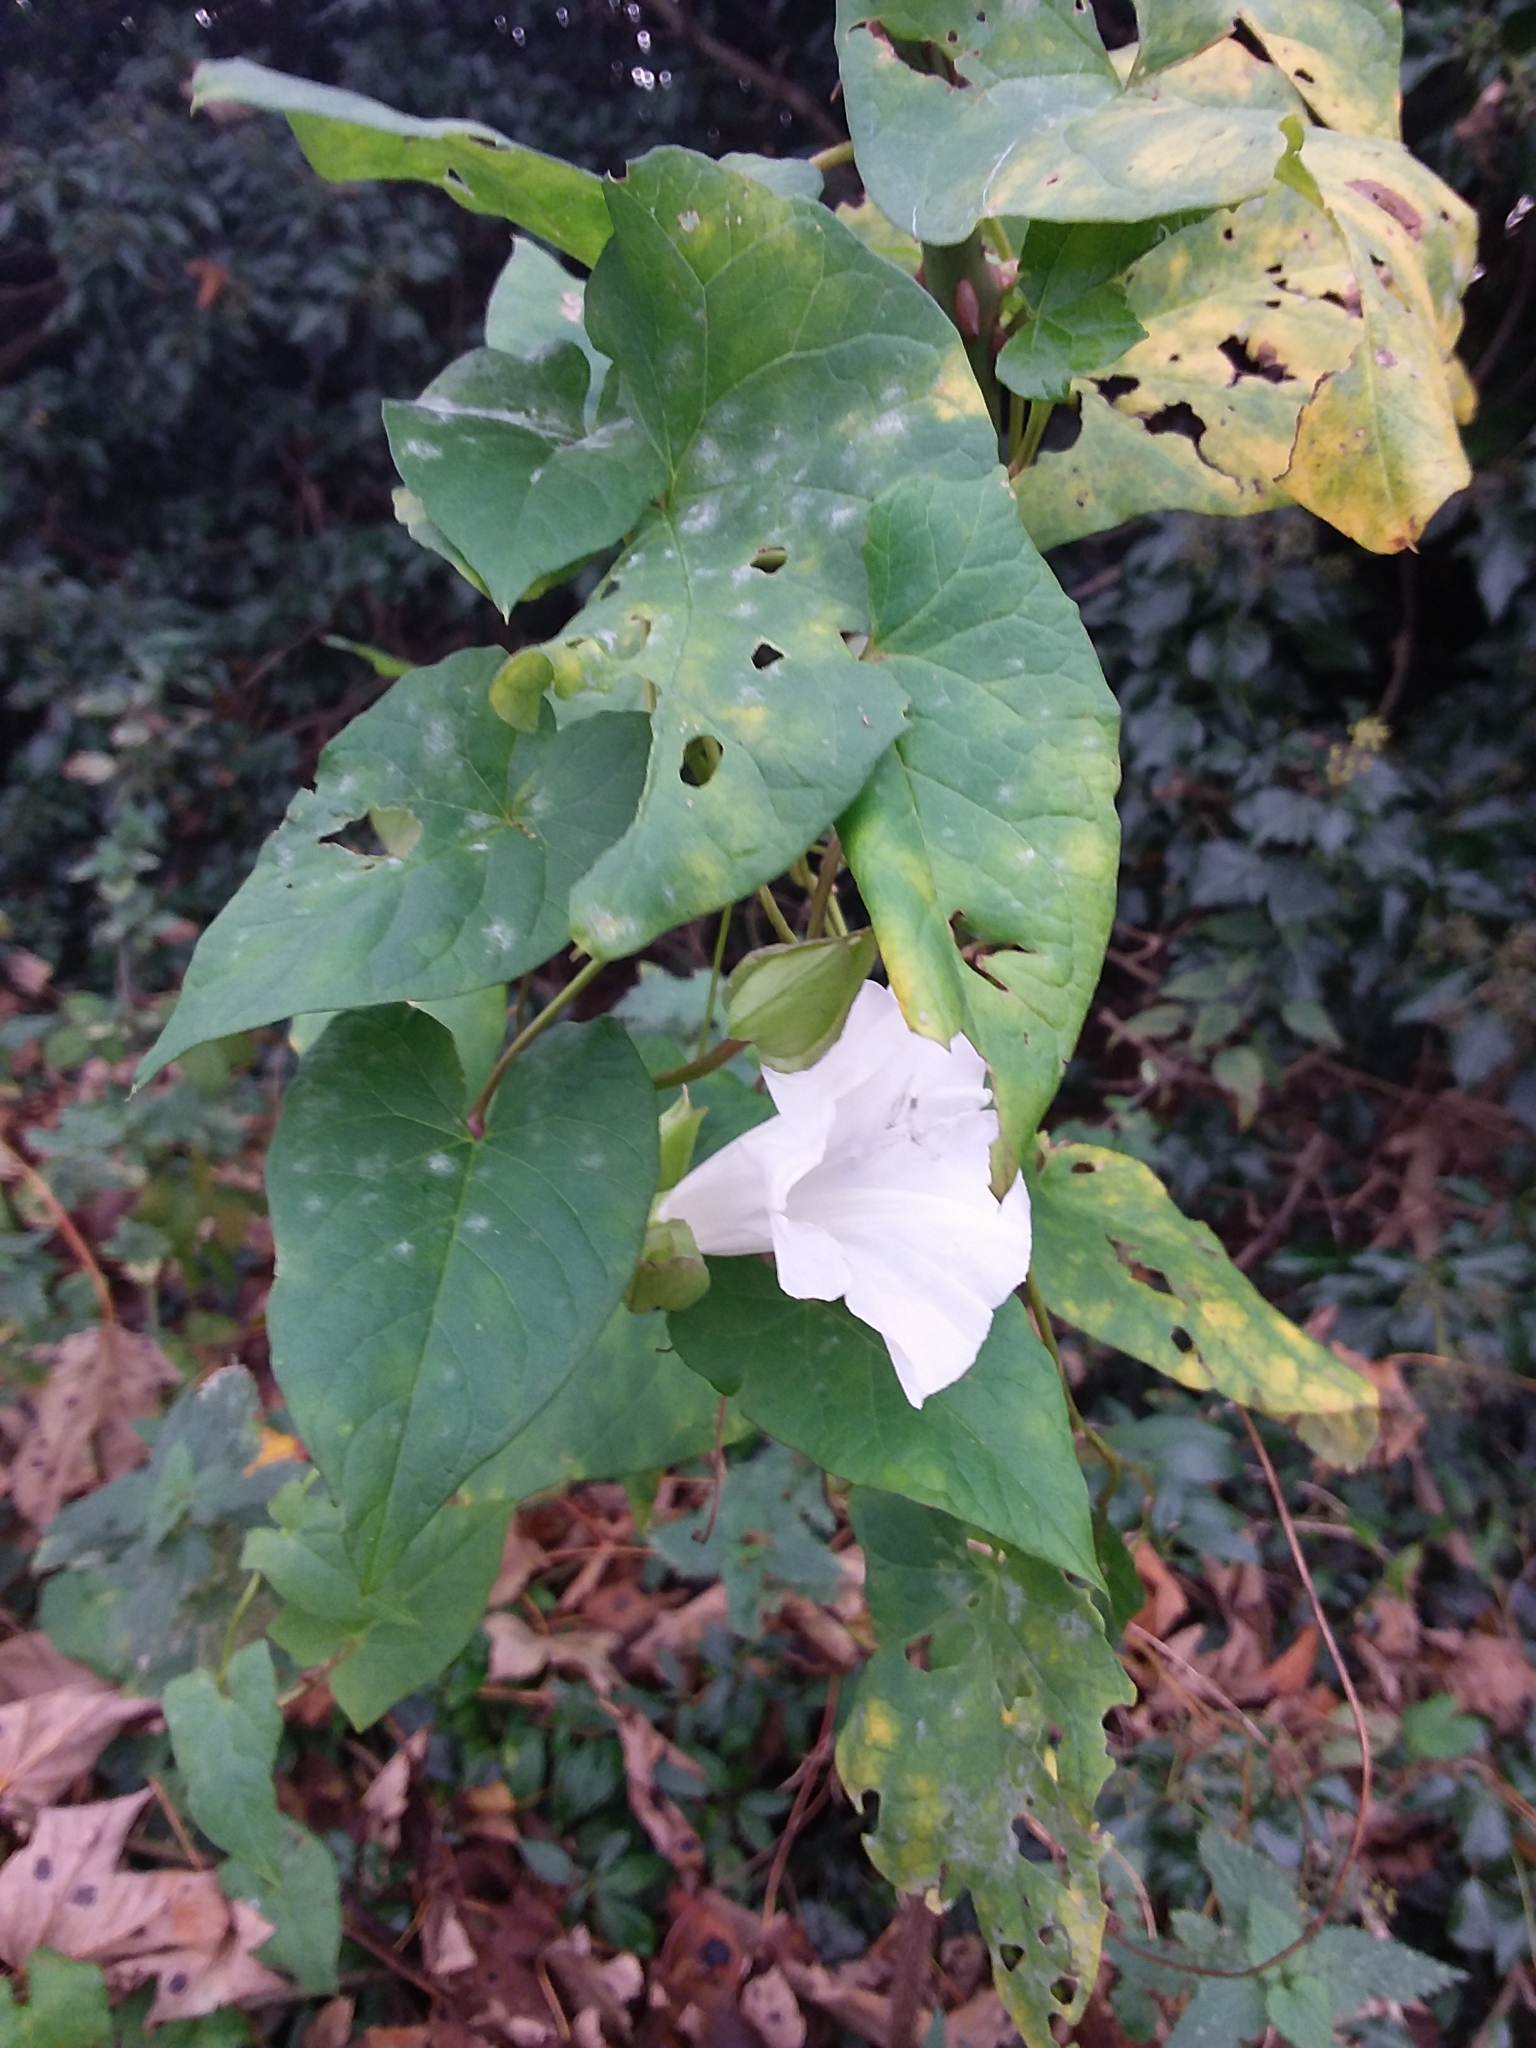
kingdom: Plantae
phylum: Tracheophyta
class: Magnoliopsida
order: Solanales
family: Convolvulaceae
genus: Calystegia
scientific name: Calystegia silvatica
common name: Large bindweed
